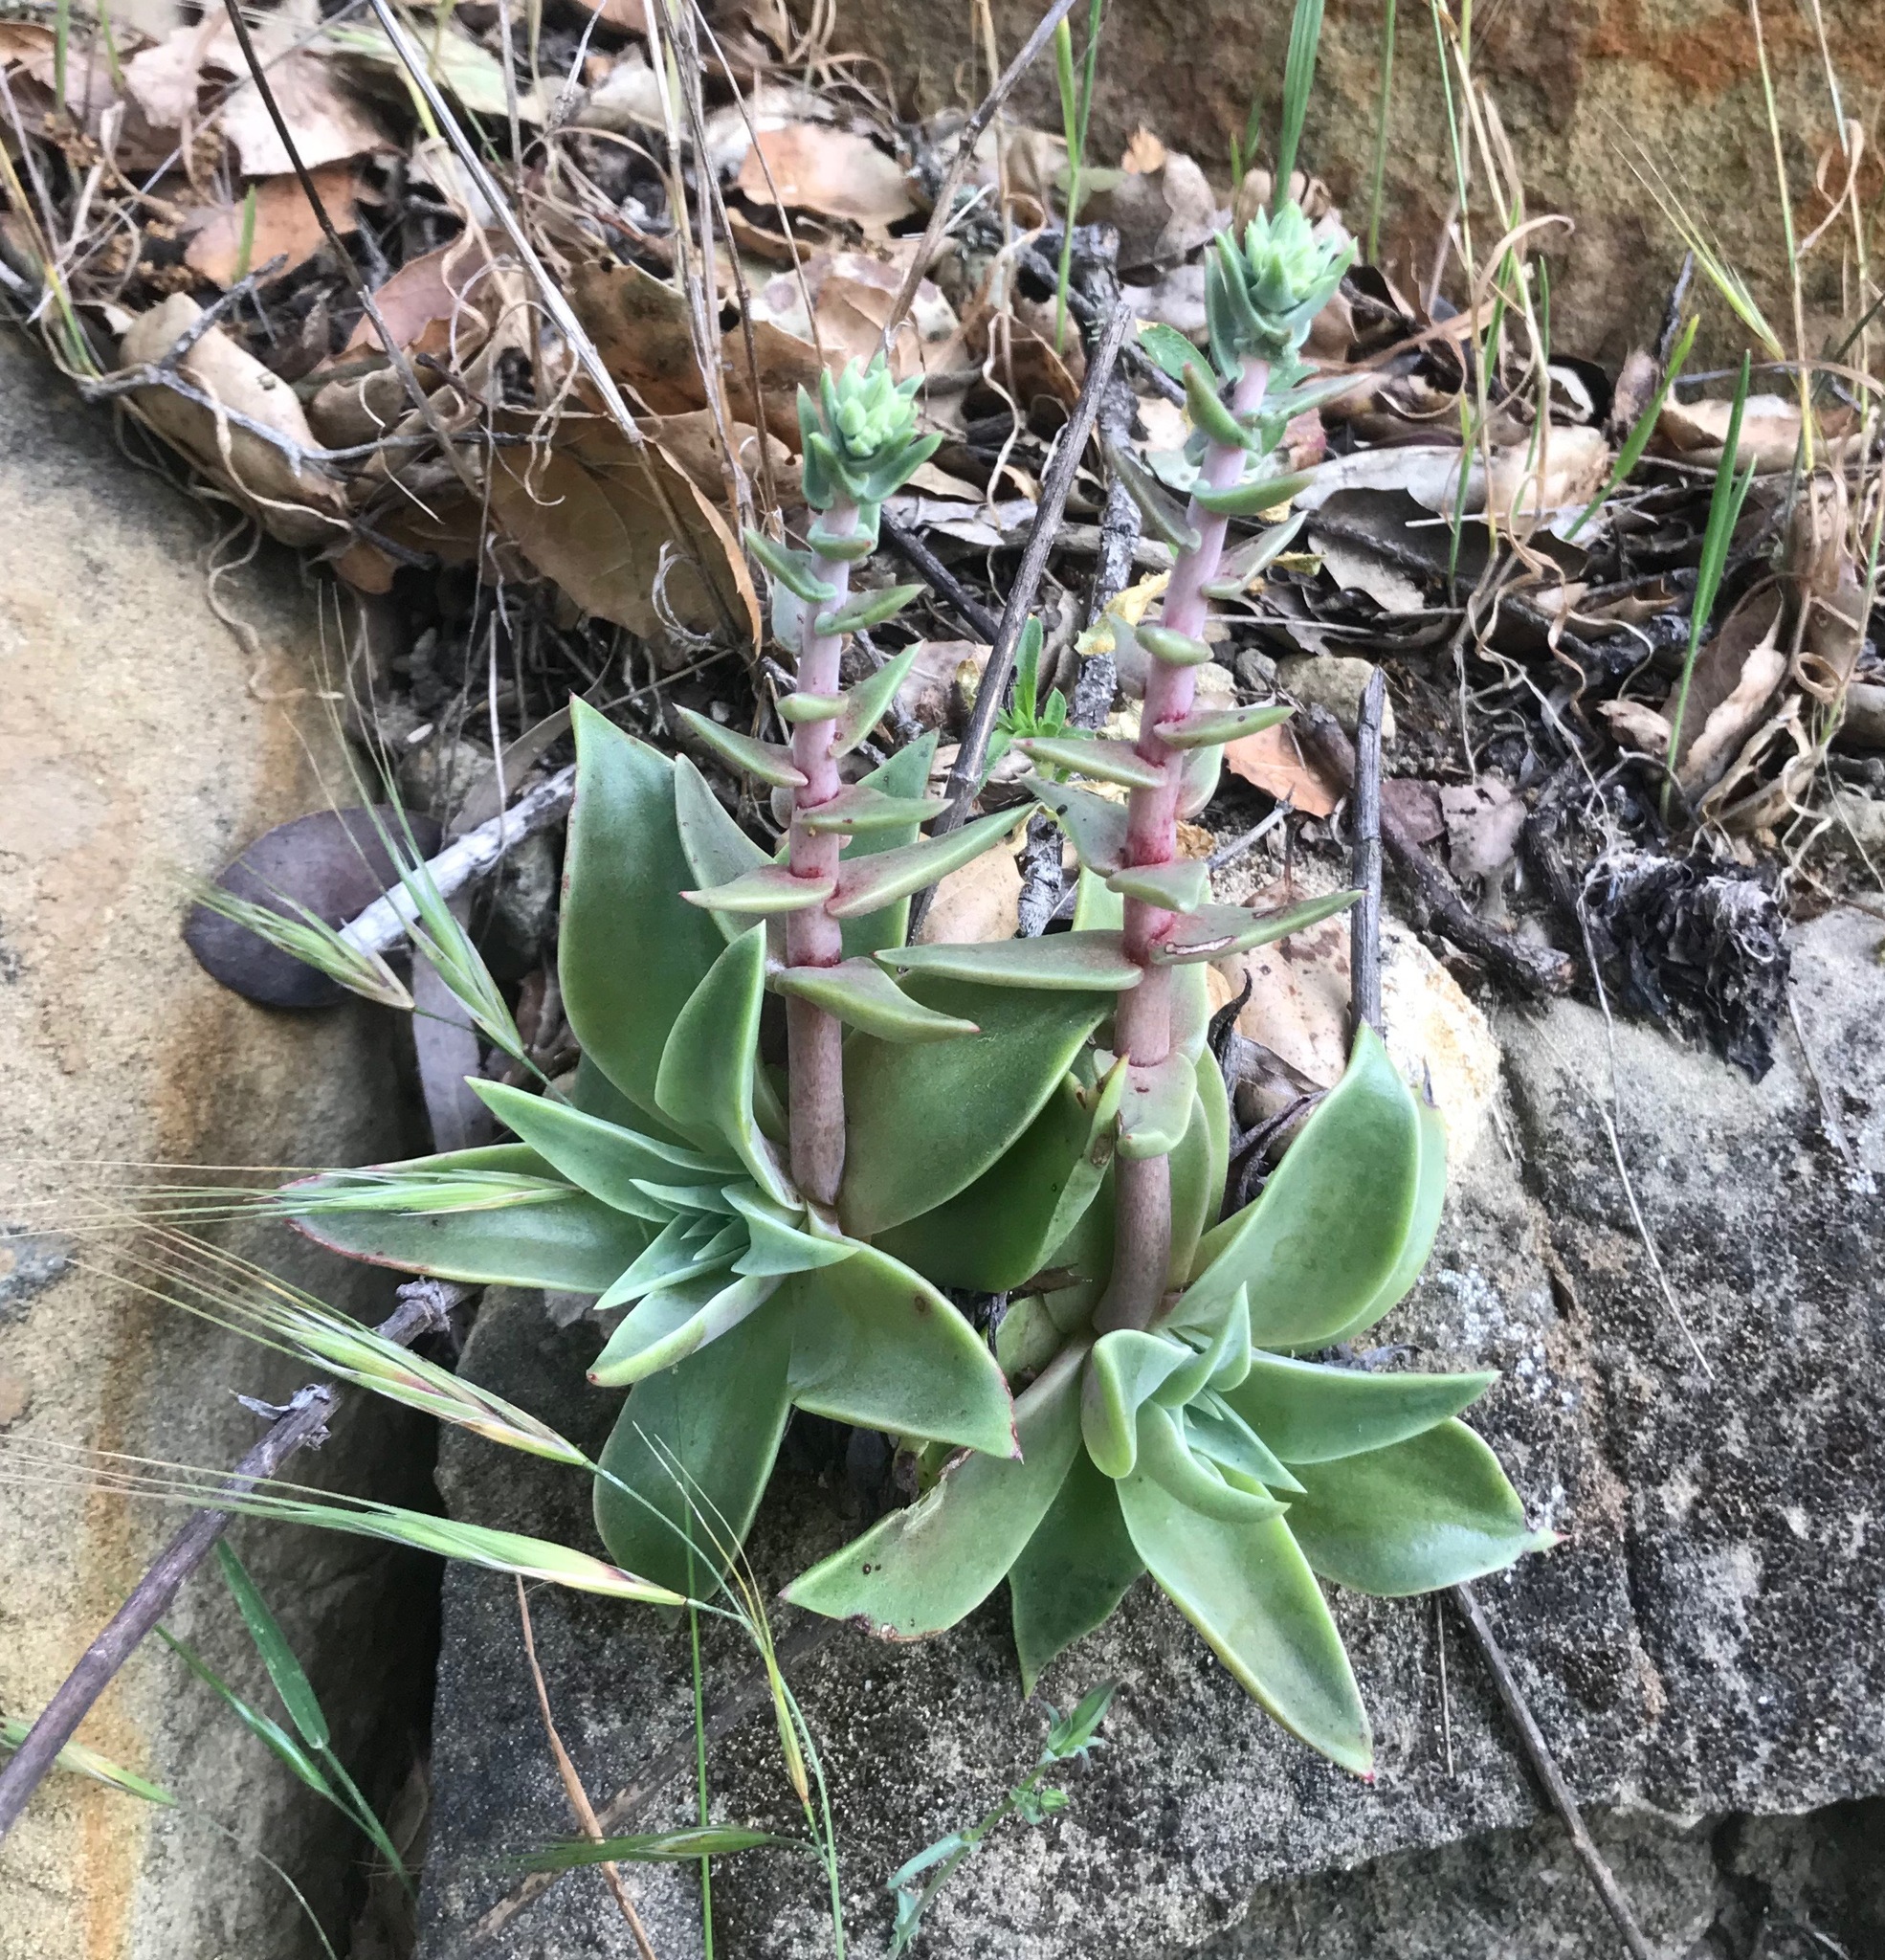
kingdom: Plantae
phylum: Tracheophyta
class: Magnoliopsida
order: Saxifragales
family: Crassulaceae
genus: Dudleya
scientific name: Dudleya lanceolata
